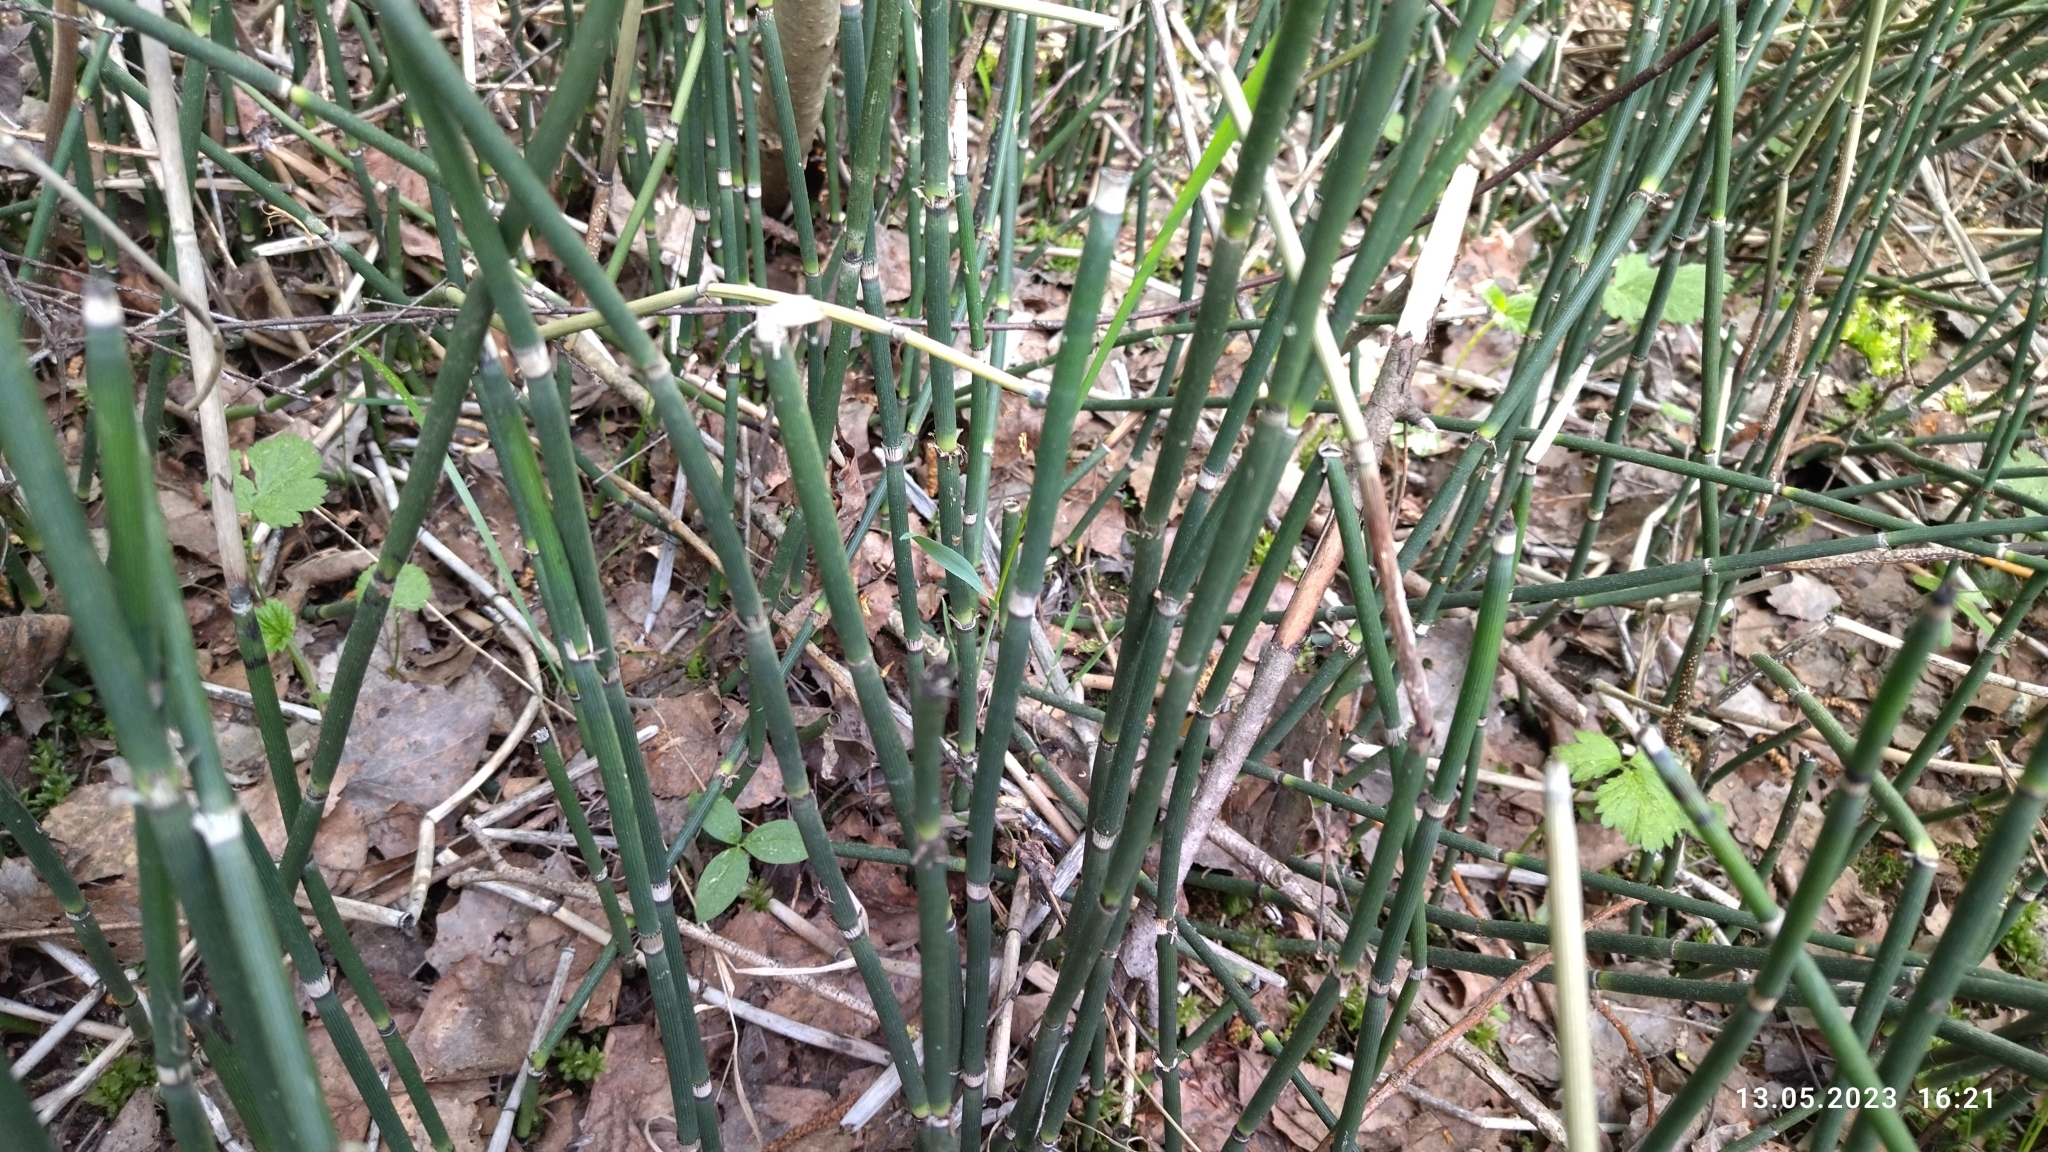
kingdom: Plantae
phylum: Tracheophyta
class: Polypodiopsida
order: Equisetales
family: Equisetaceae
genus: Equisetum
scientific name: Equisetum hyemale
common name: Rough horsetail
